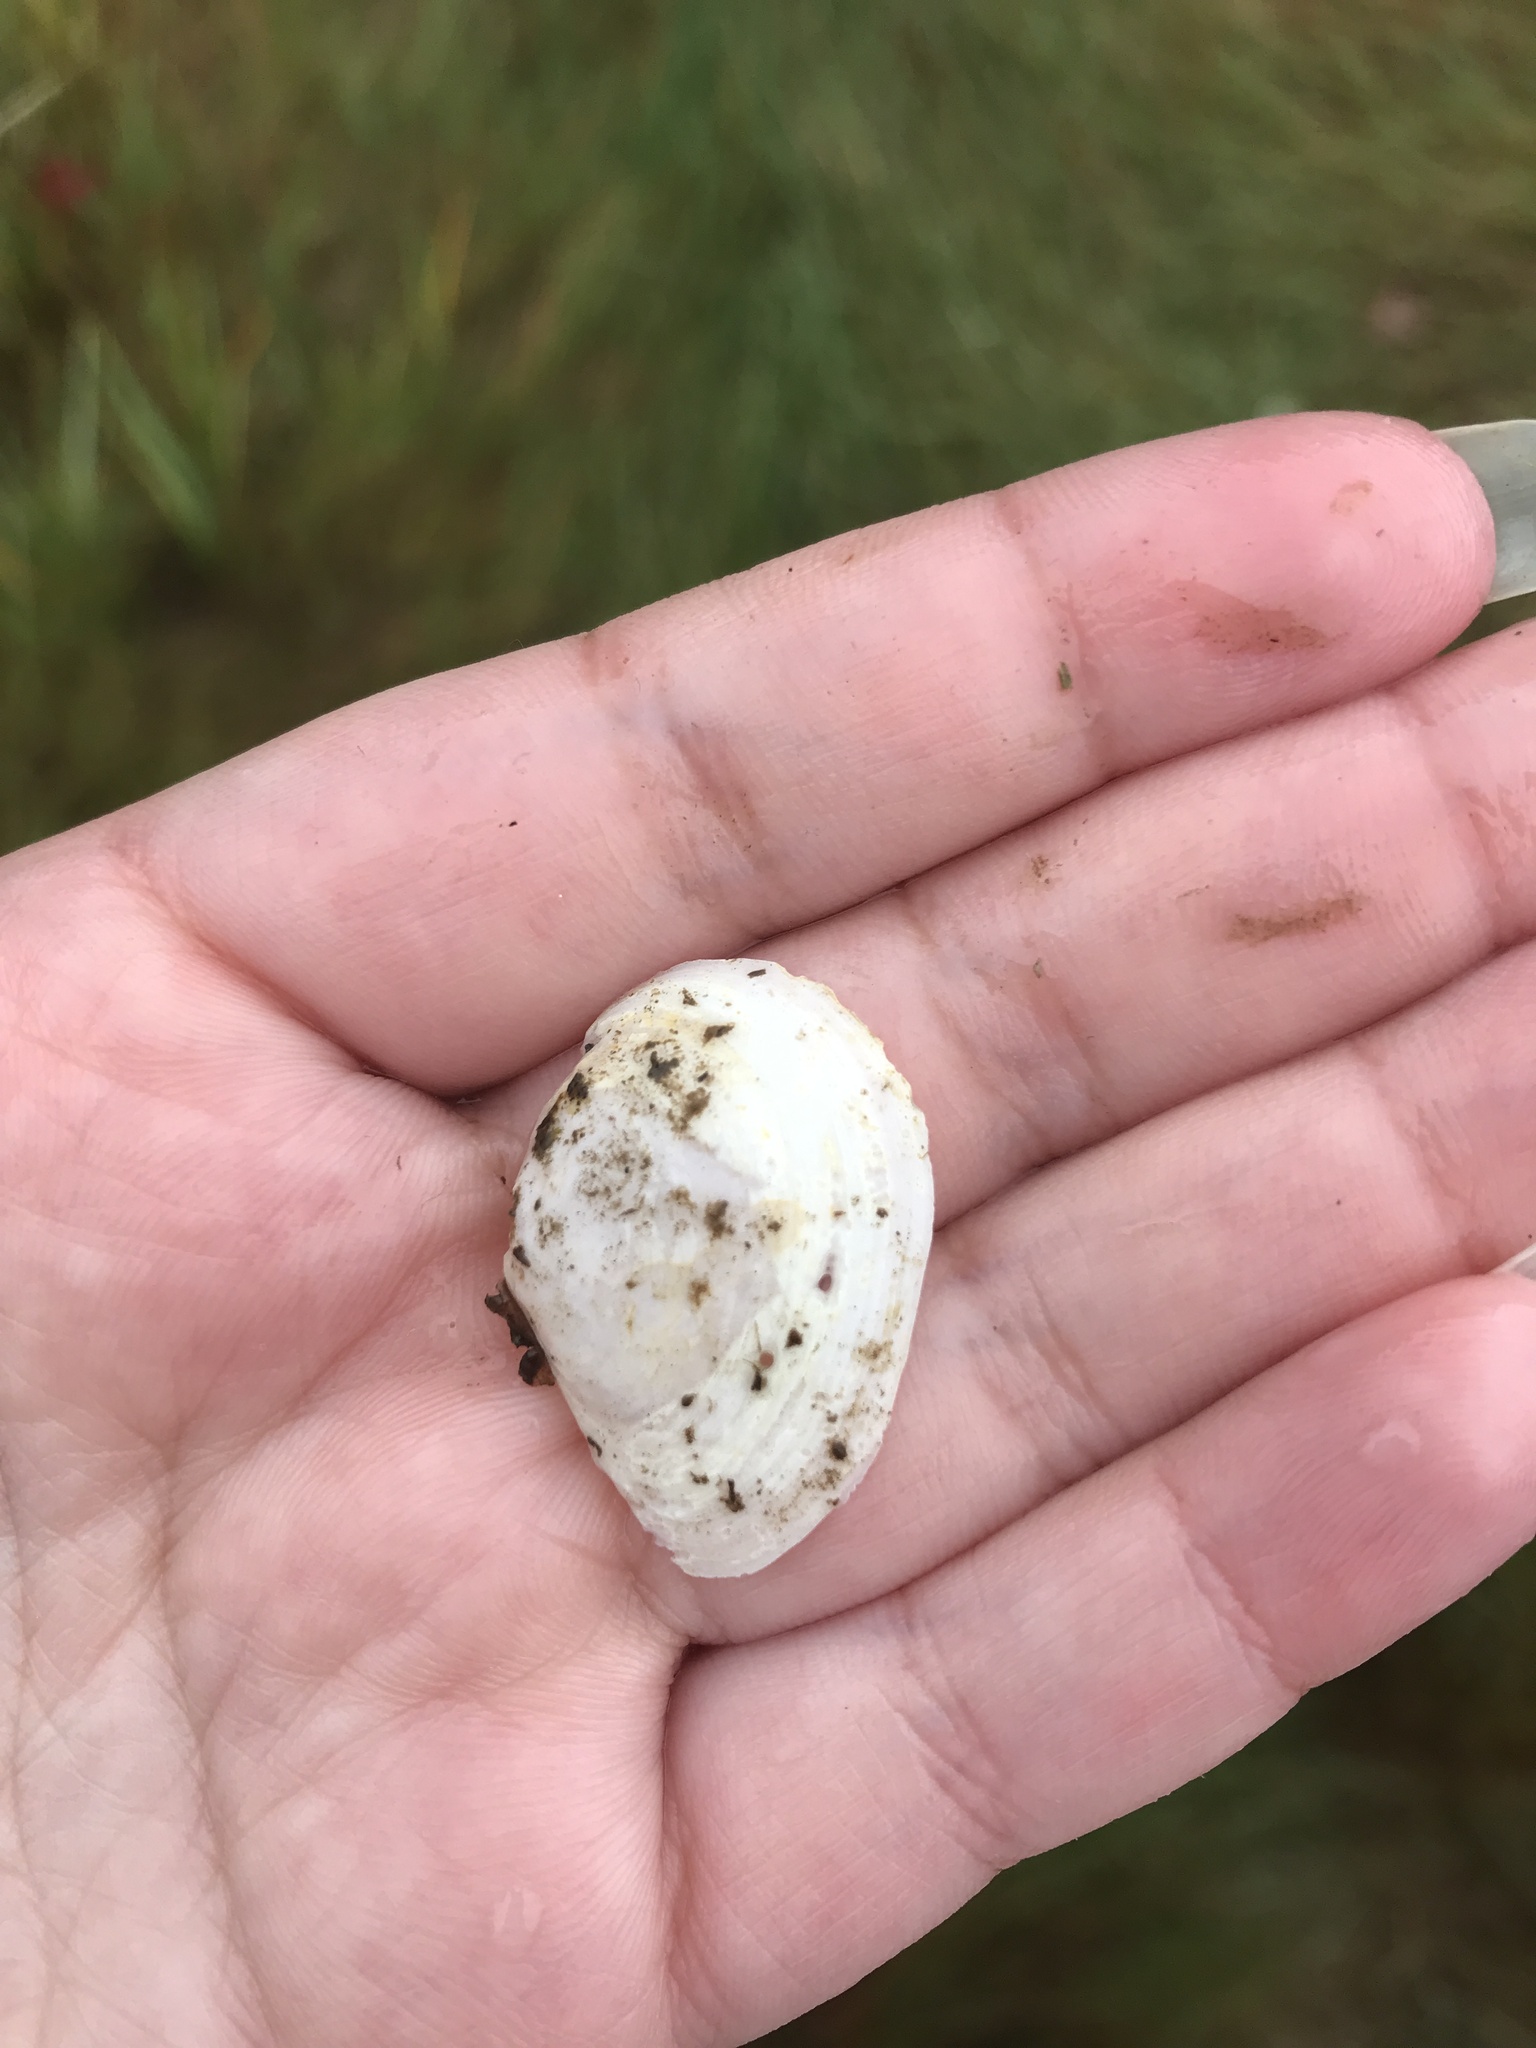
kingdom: Animalia
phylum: Mollusca
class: Bivalvia
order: Cardiida
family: Tellinidae
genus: Macoma
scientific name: Macoma petalum
